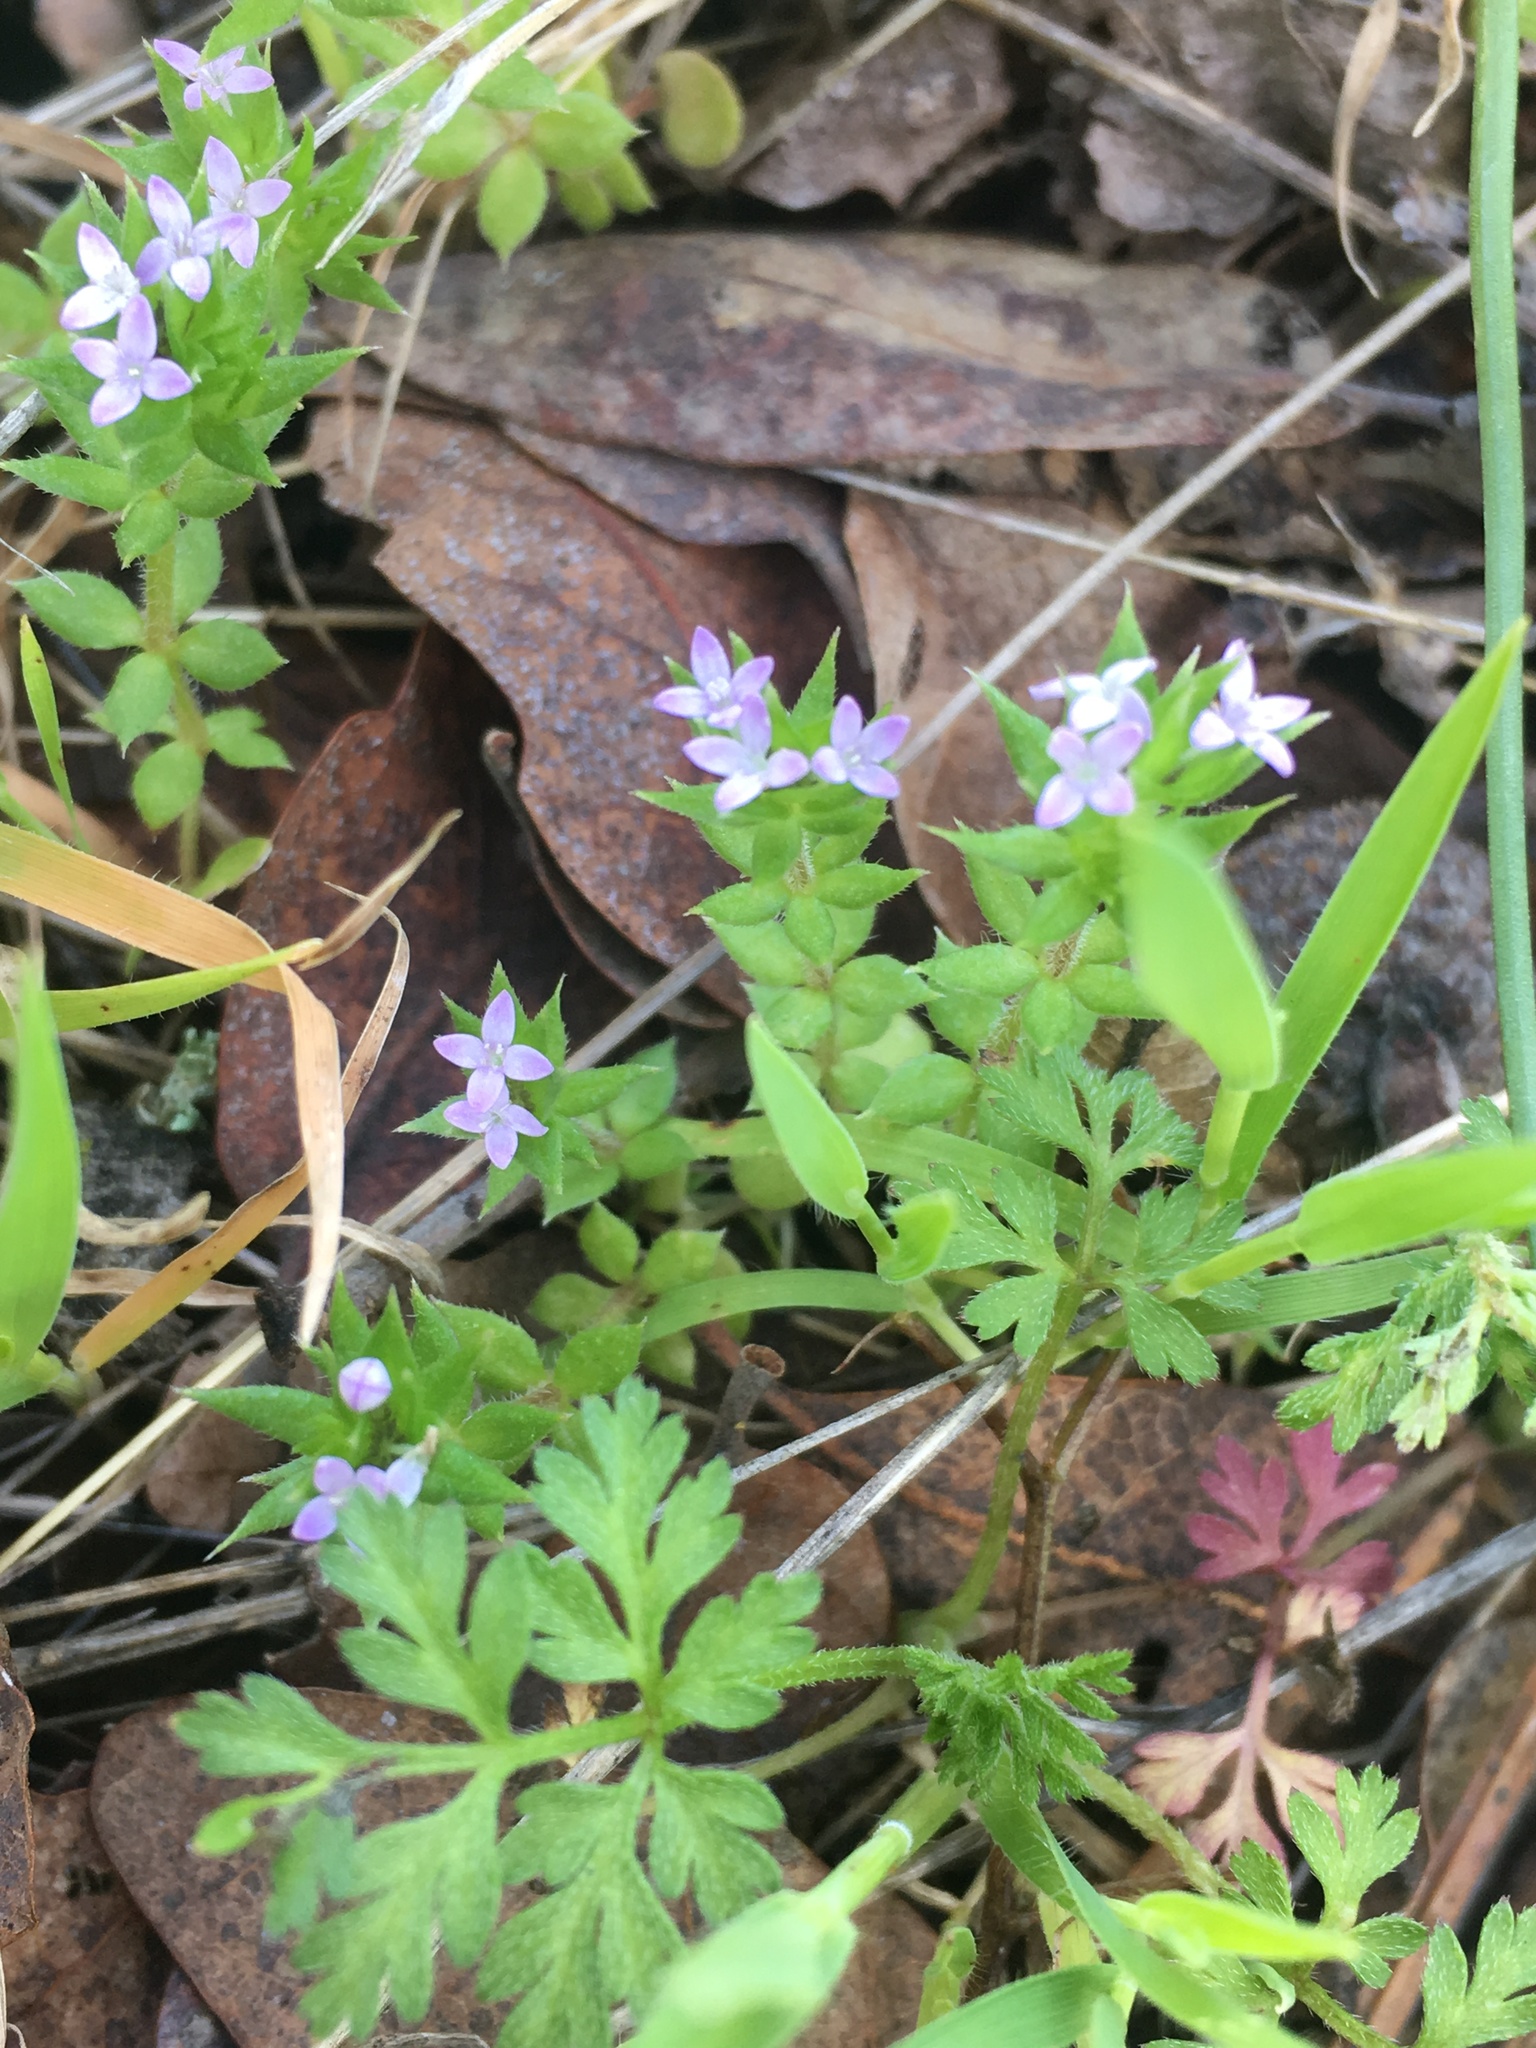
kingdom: Plantae
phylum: Tracheophyta
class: Magnoliopsida
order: Gentianales
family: Rubiaceae
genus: Sherardia
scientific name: Sherardia arvensis
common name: Field madder
